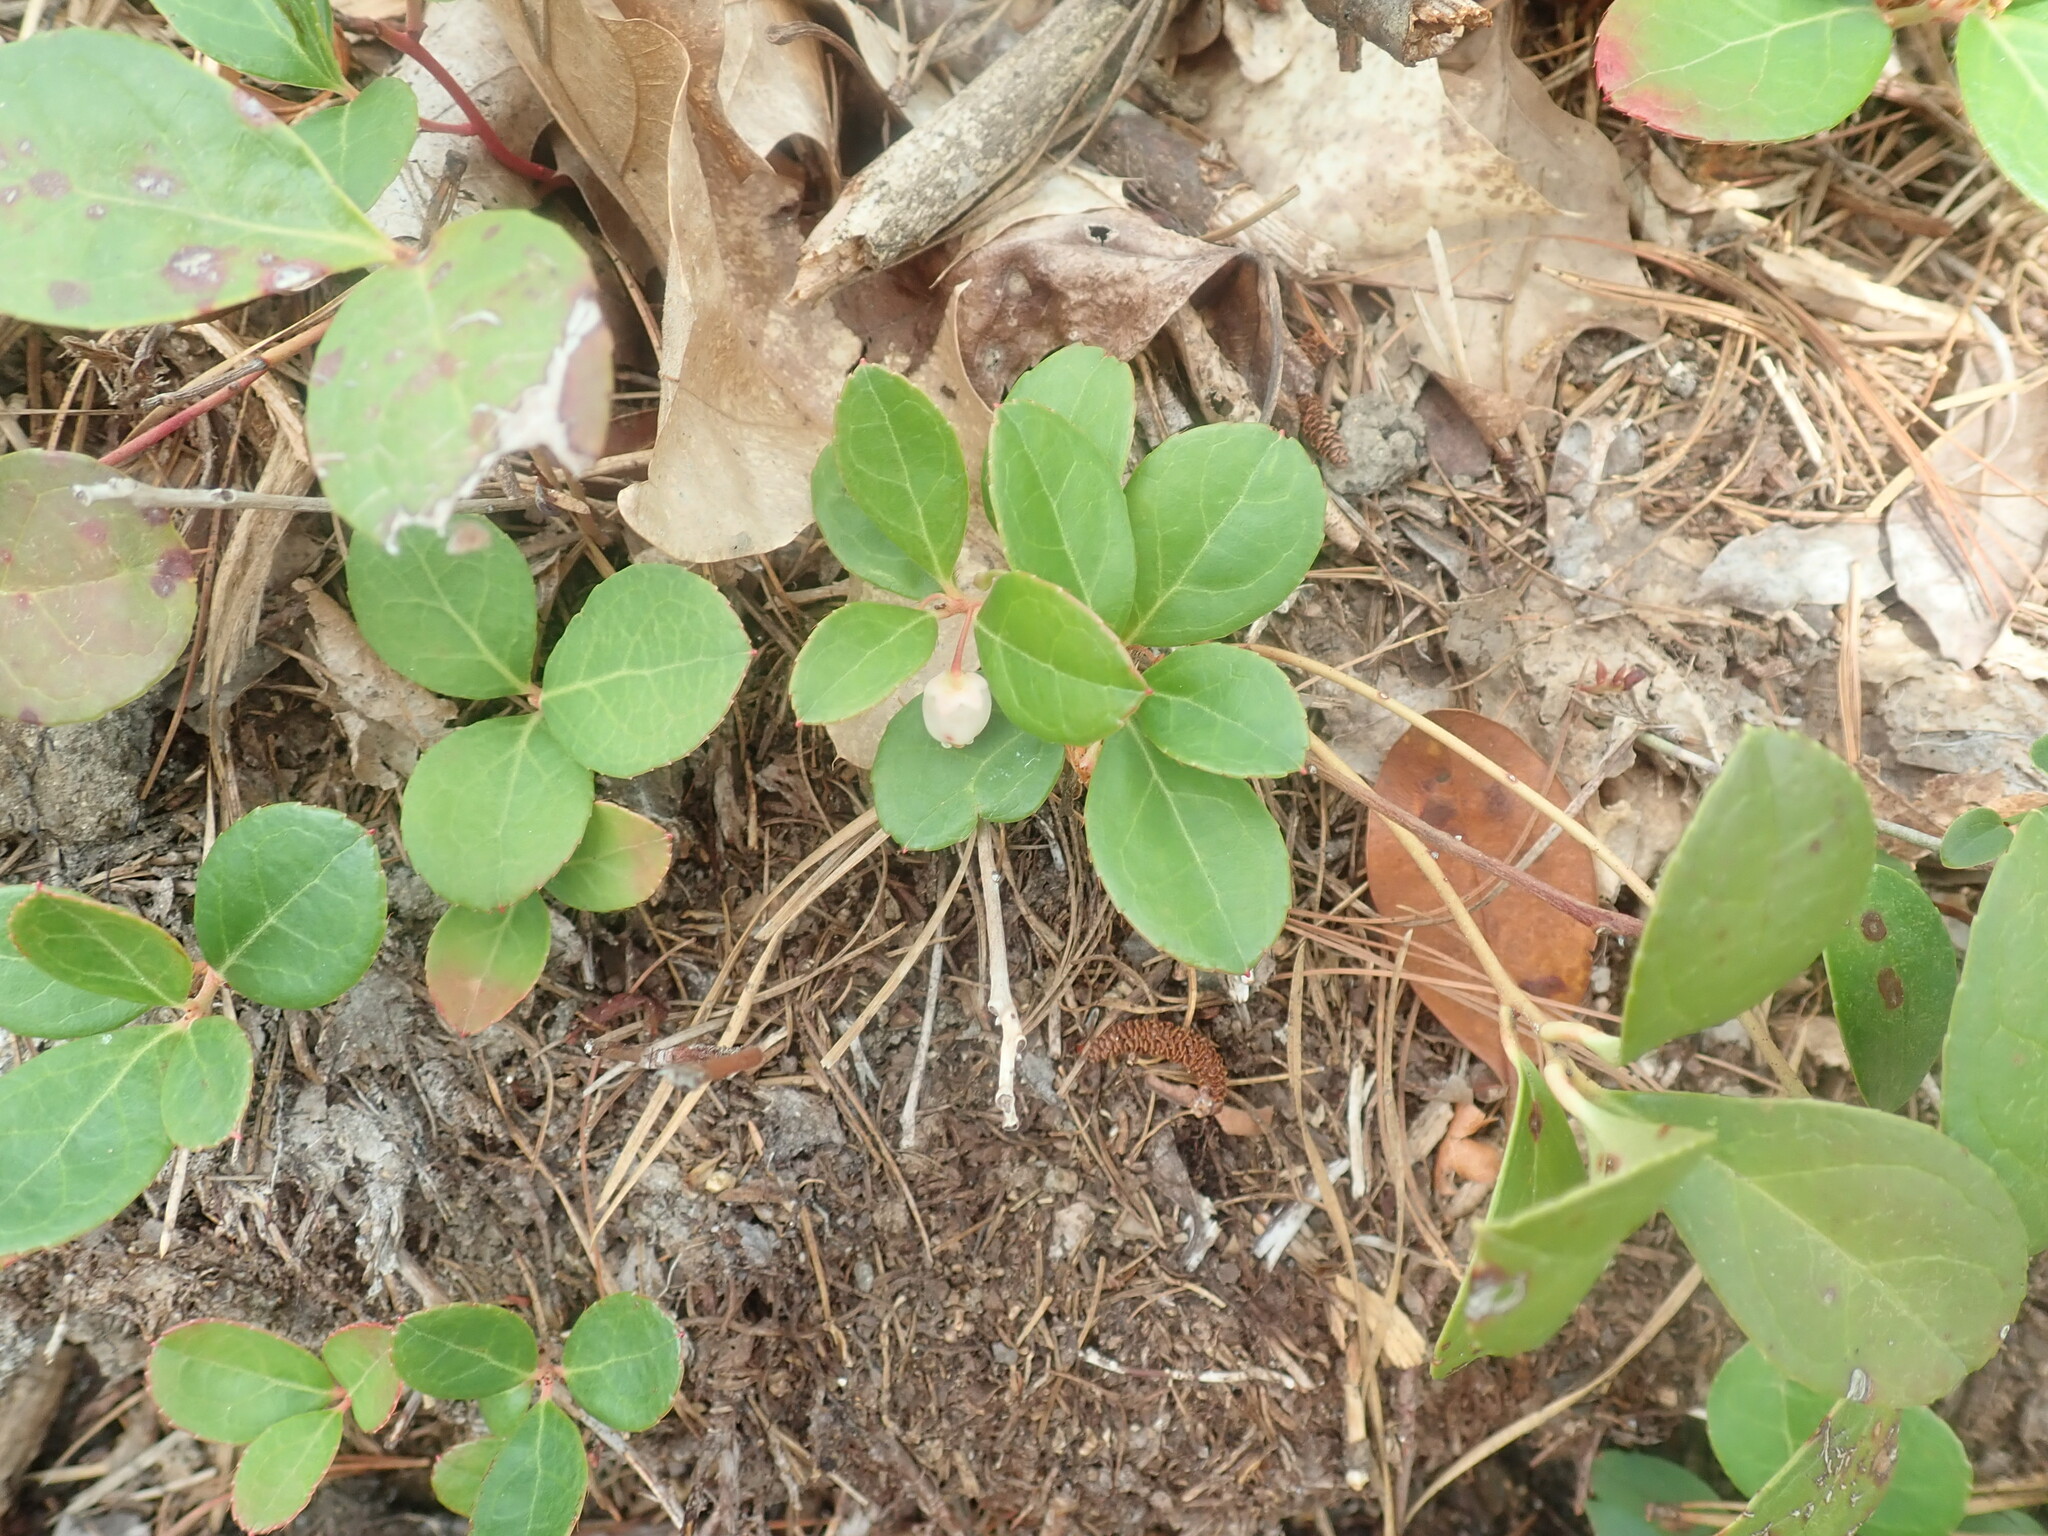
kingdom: Plantae
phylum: Tracheophyta
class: Magnoliopsida
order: Ericales
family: Ericaceae
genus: Gaultheria
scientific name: Gaultheria procumbens
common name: Checkerberry
